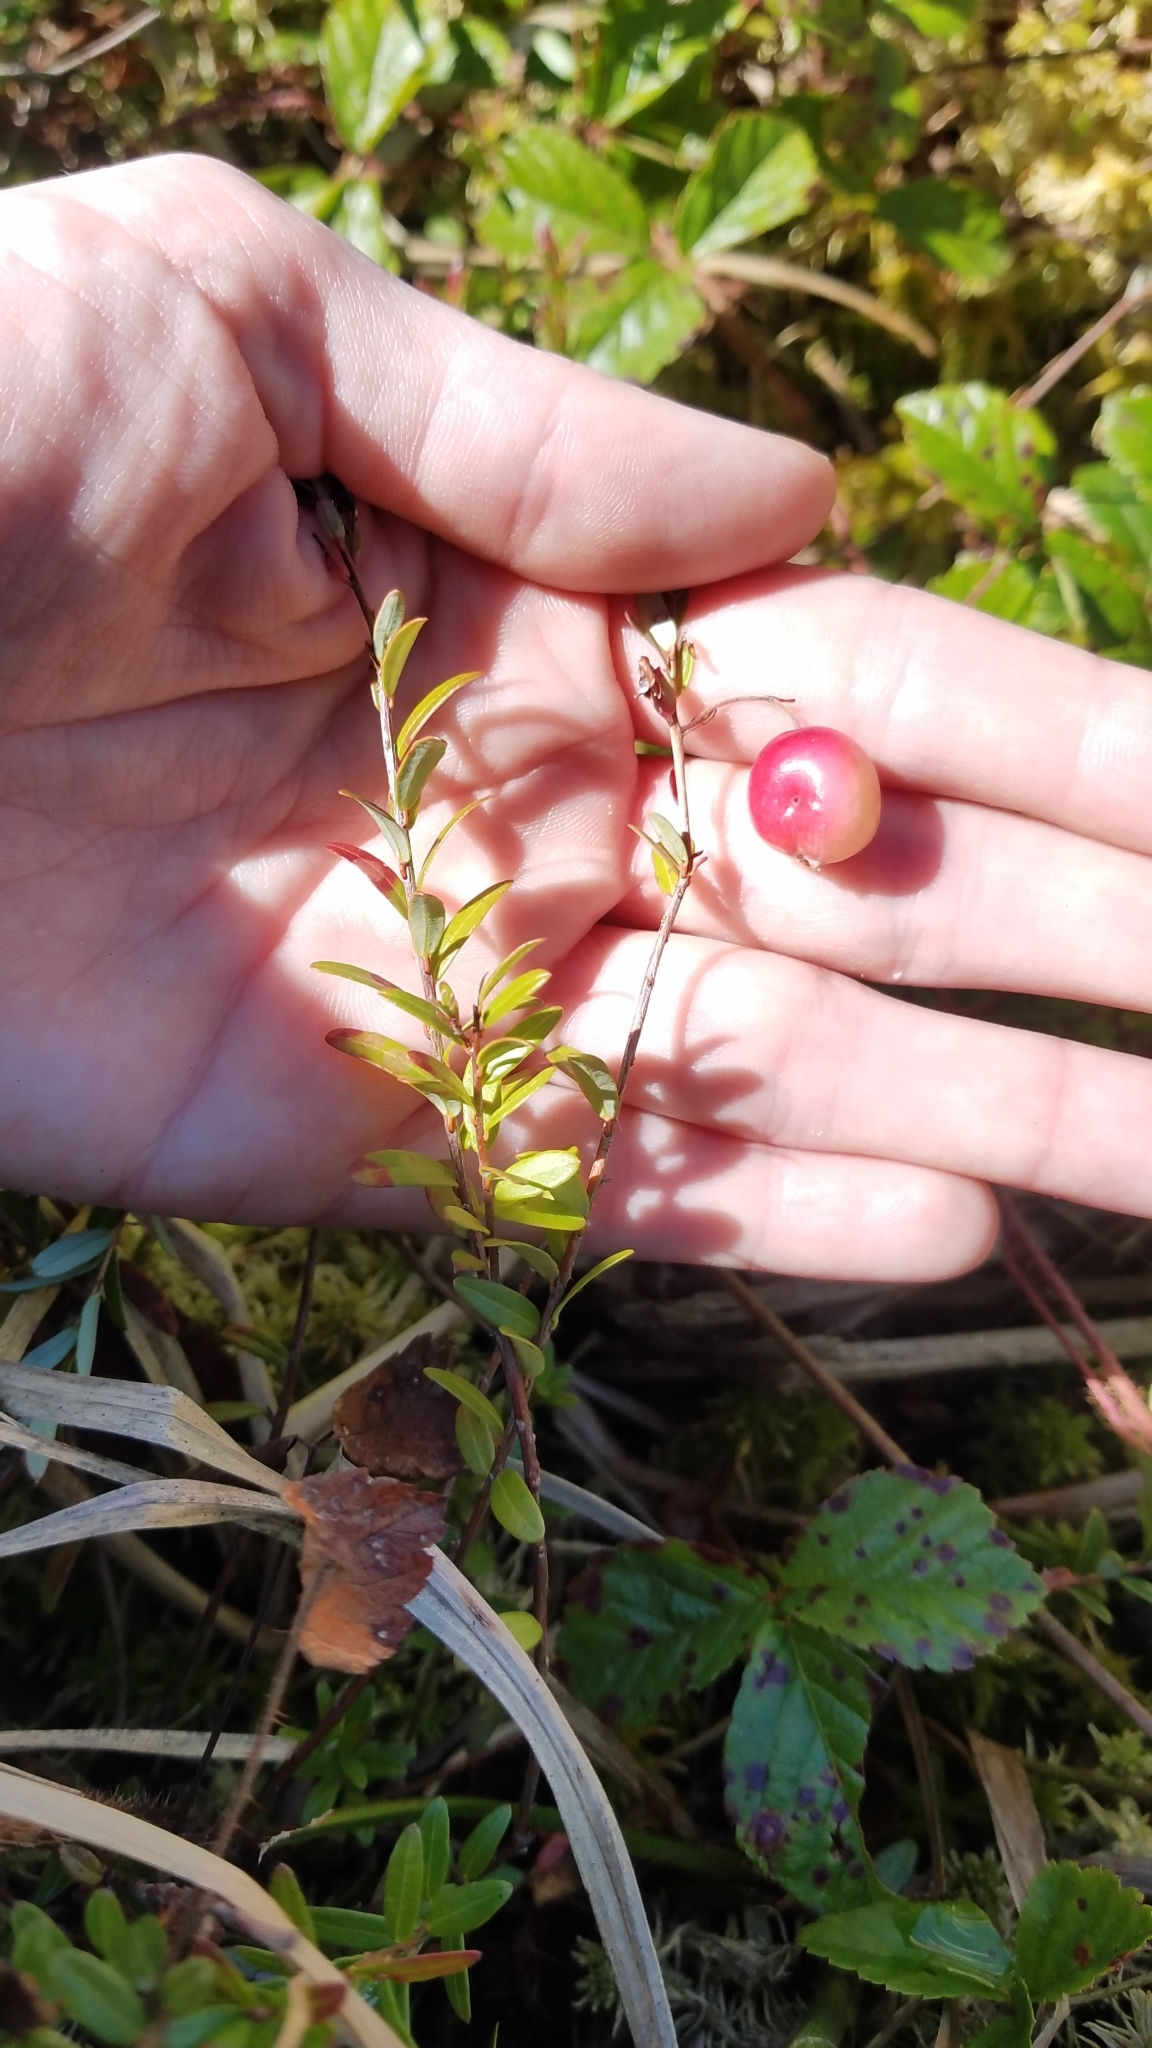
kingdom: Plantae
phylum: Tracheophyta
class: Magnoliopsida
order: Ericales
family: Ericaceae
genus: Vaccinium
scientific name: Vaccinium macrocarpon
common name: American cranberry
